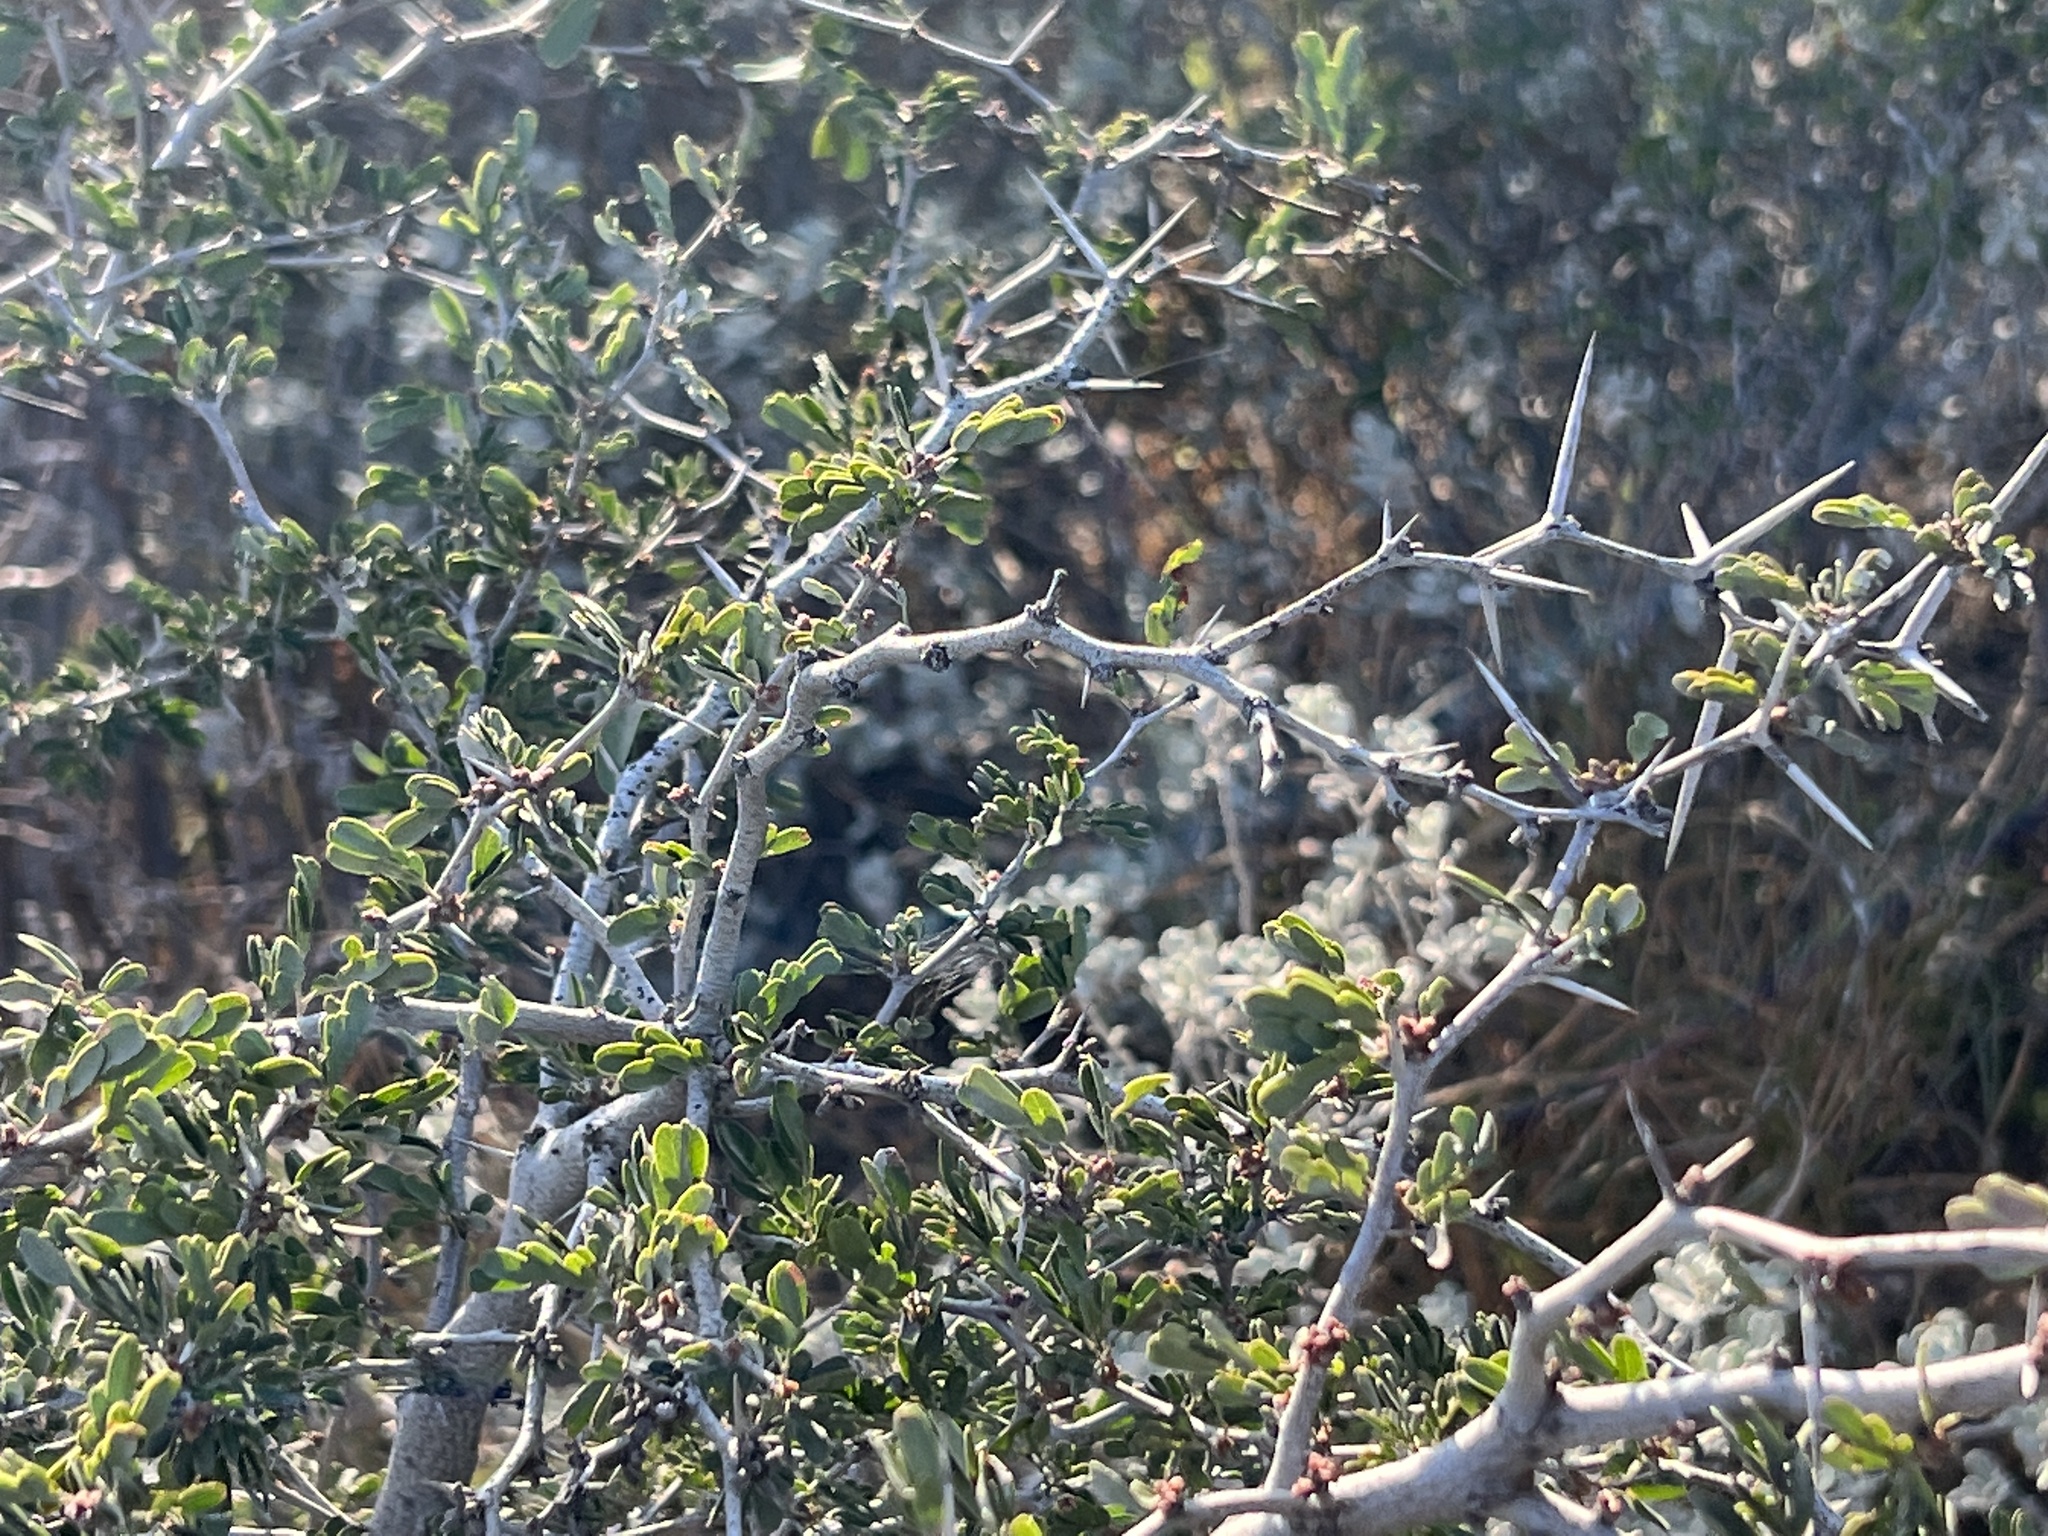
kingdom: Plantae
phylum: Tracheophyta
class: Magnoliopsida
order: Fabales
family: Fabaceae
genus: Vachellia
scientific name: Vachellia rigidula
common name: Blackbrush
